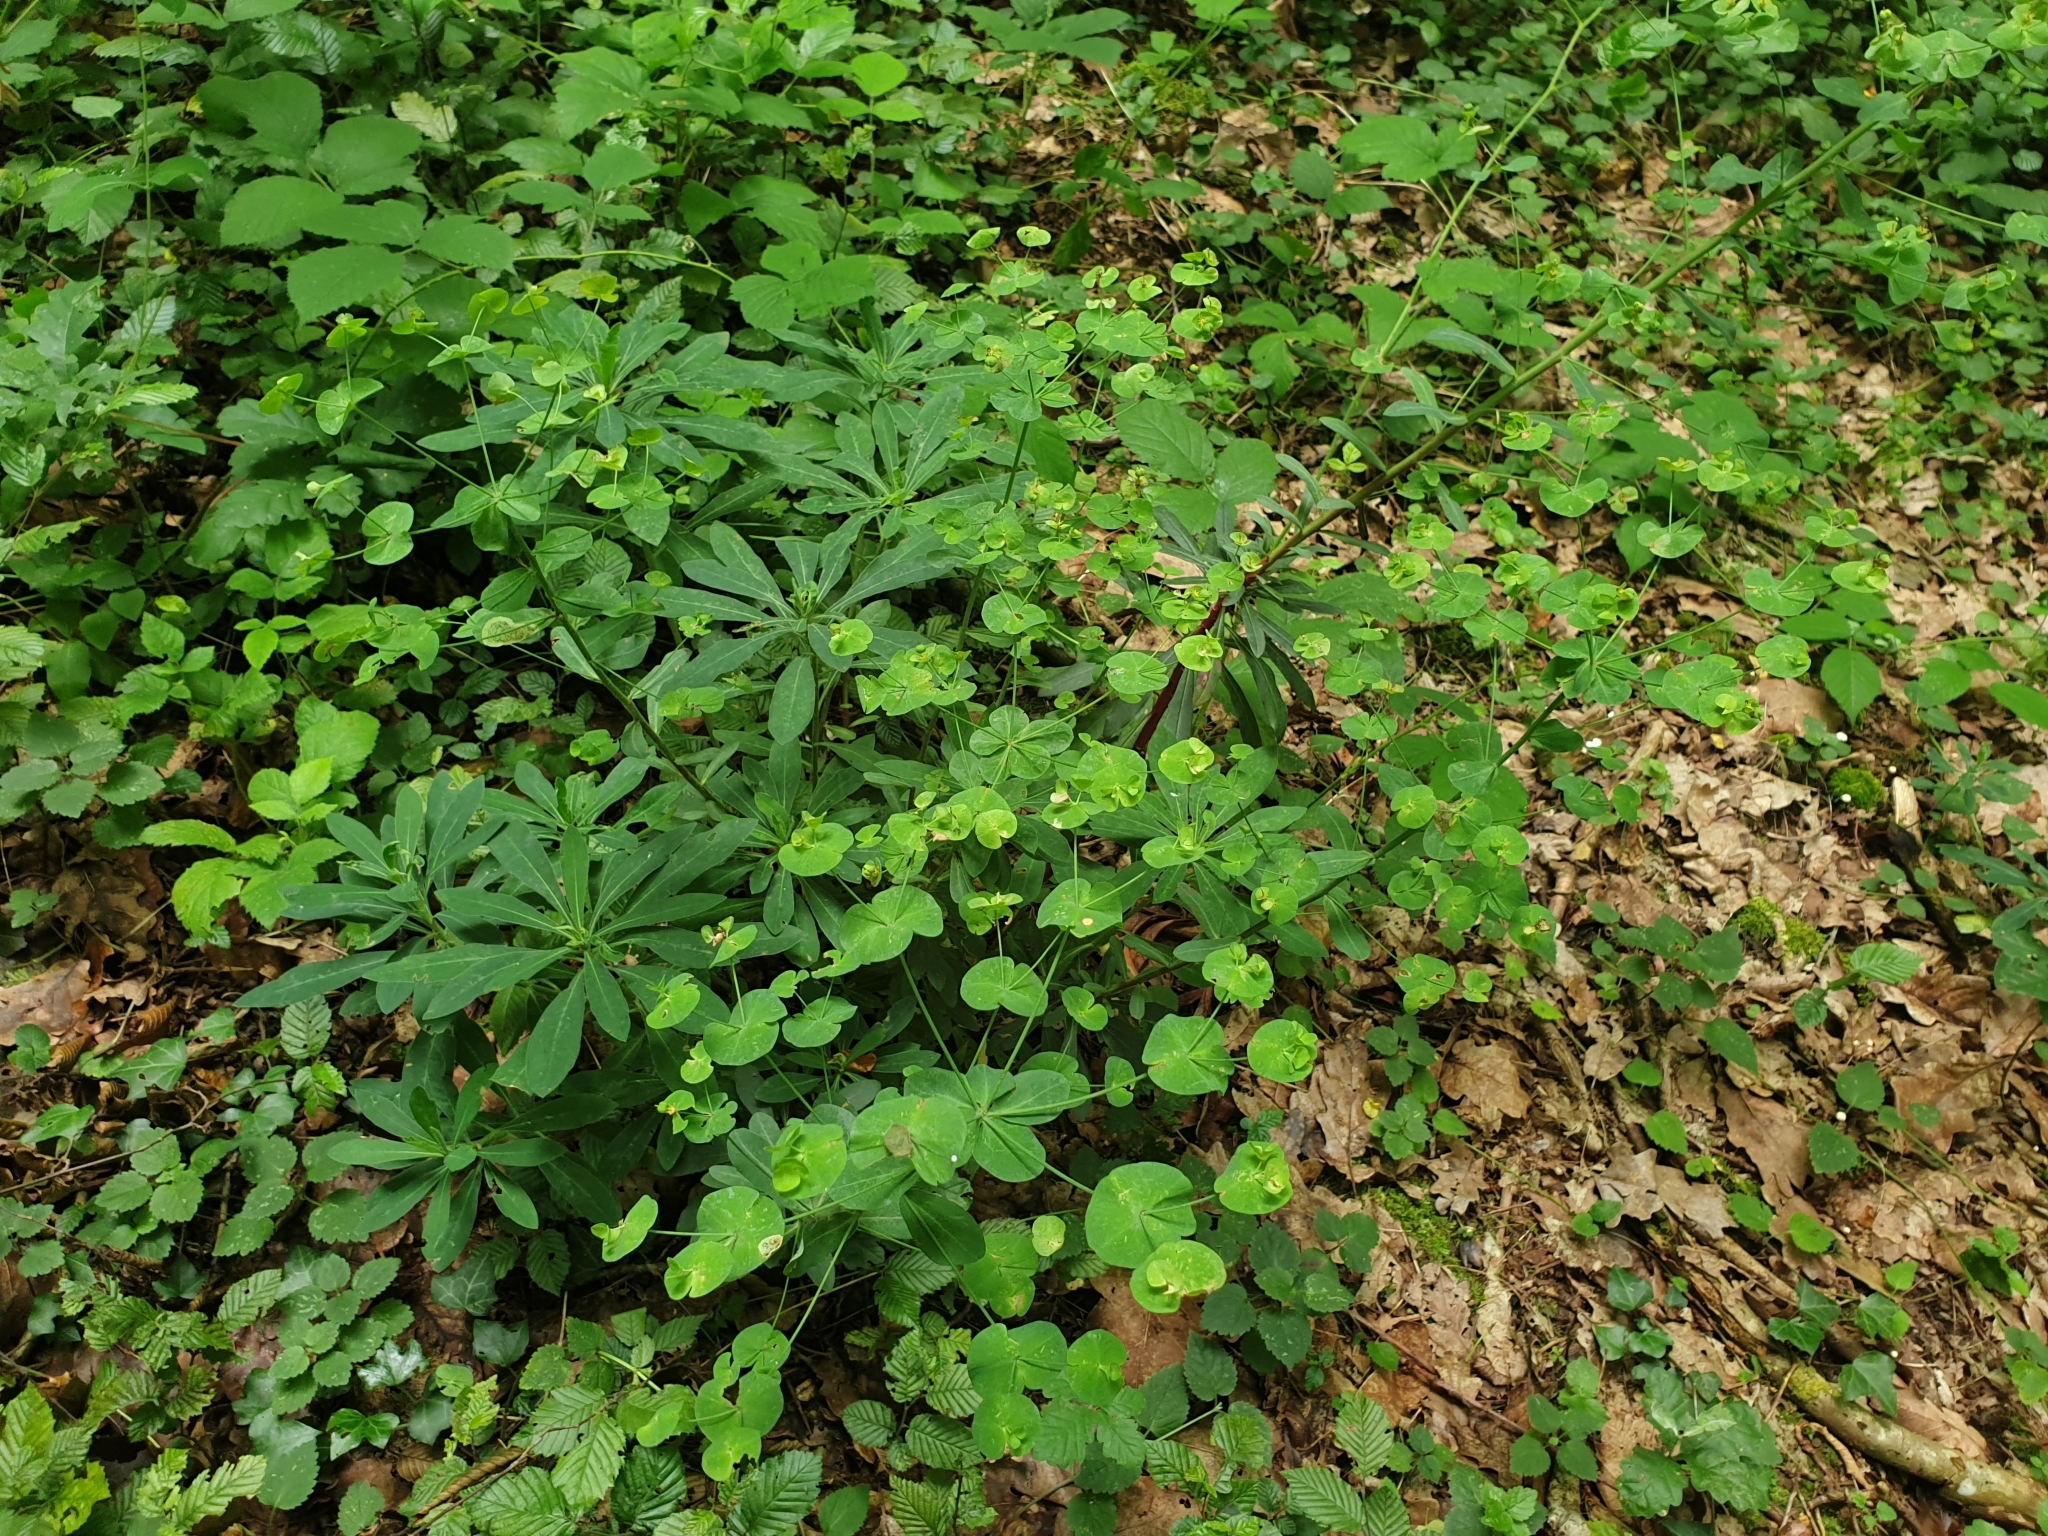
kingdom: Plantae
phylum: Tracheophyta
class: Magnoliopsida
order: Malpighiales
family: Euphorbiaceae
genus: Euphorbia
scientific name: Euphorbia amygdaloides
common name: Wood spurge
